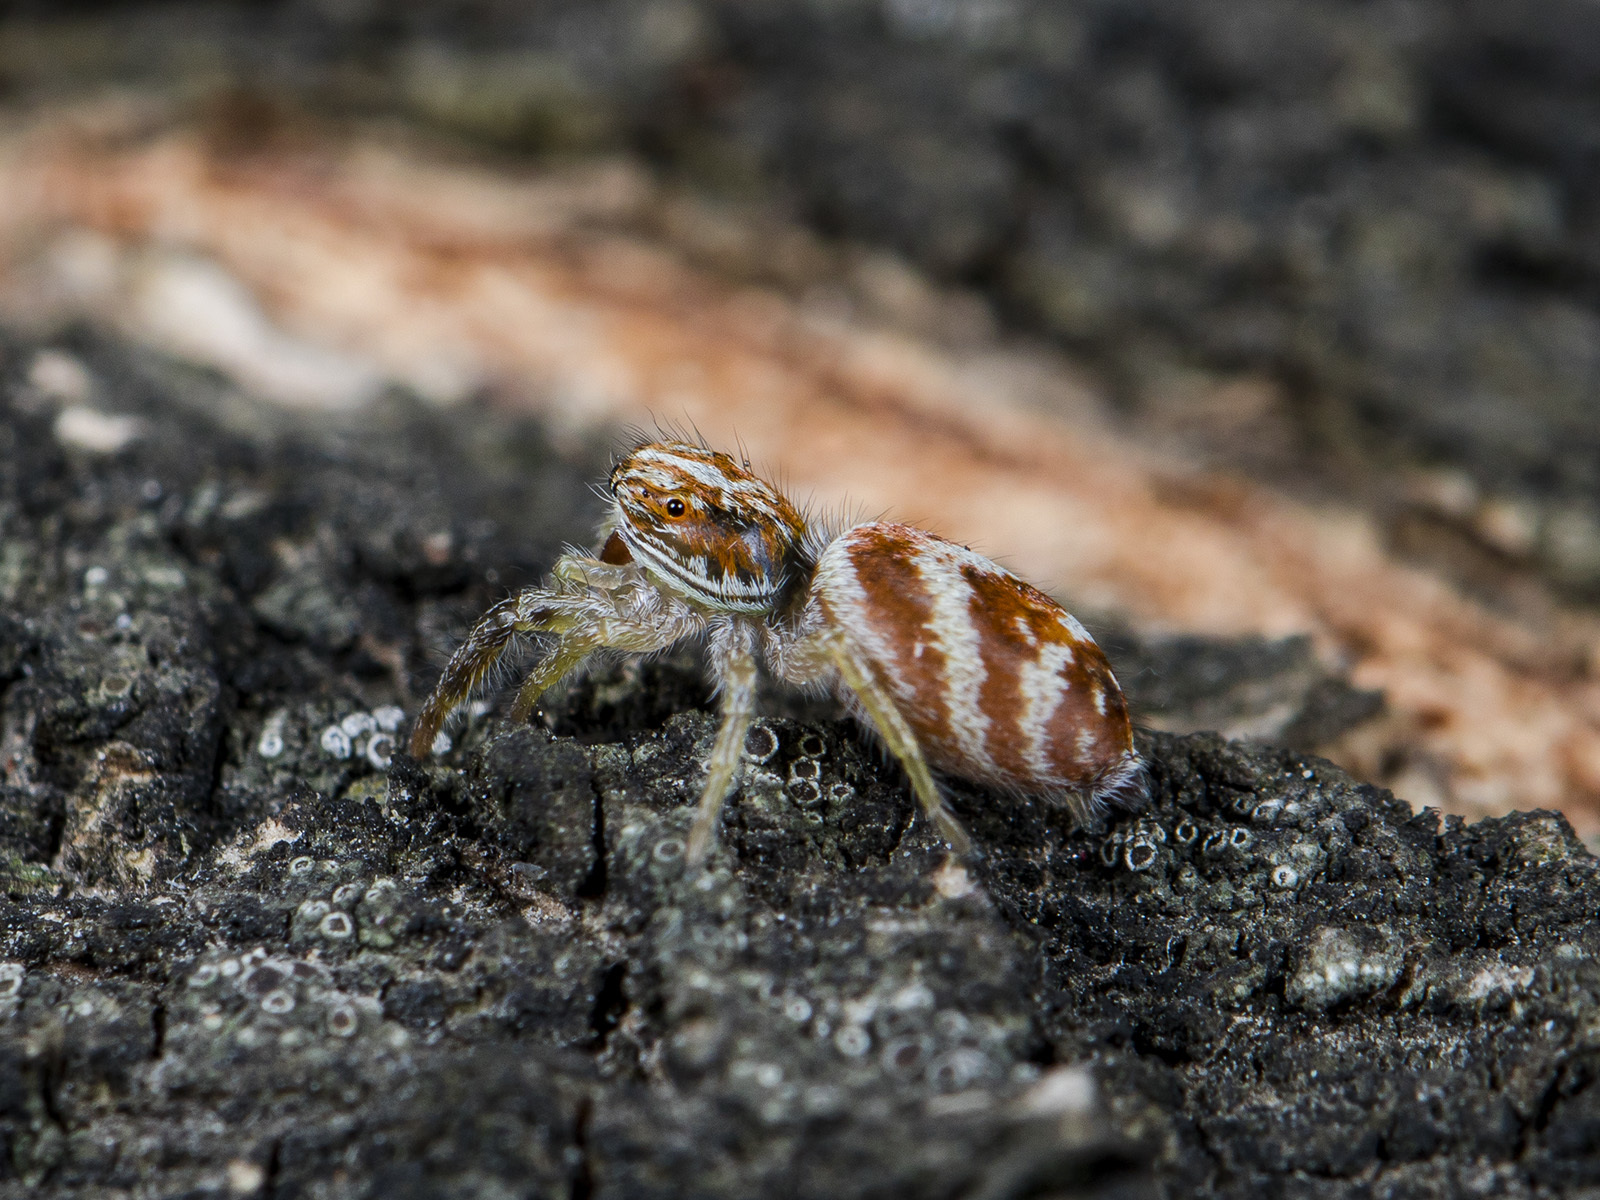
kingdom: Animalia
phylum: Arthropoda
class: Arachnida
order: Araneae
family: Salticidae
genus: Rudakius
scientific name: Rudakius cinctus
